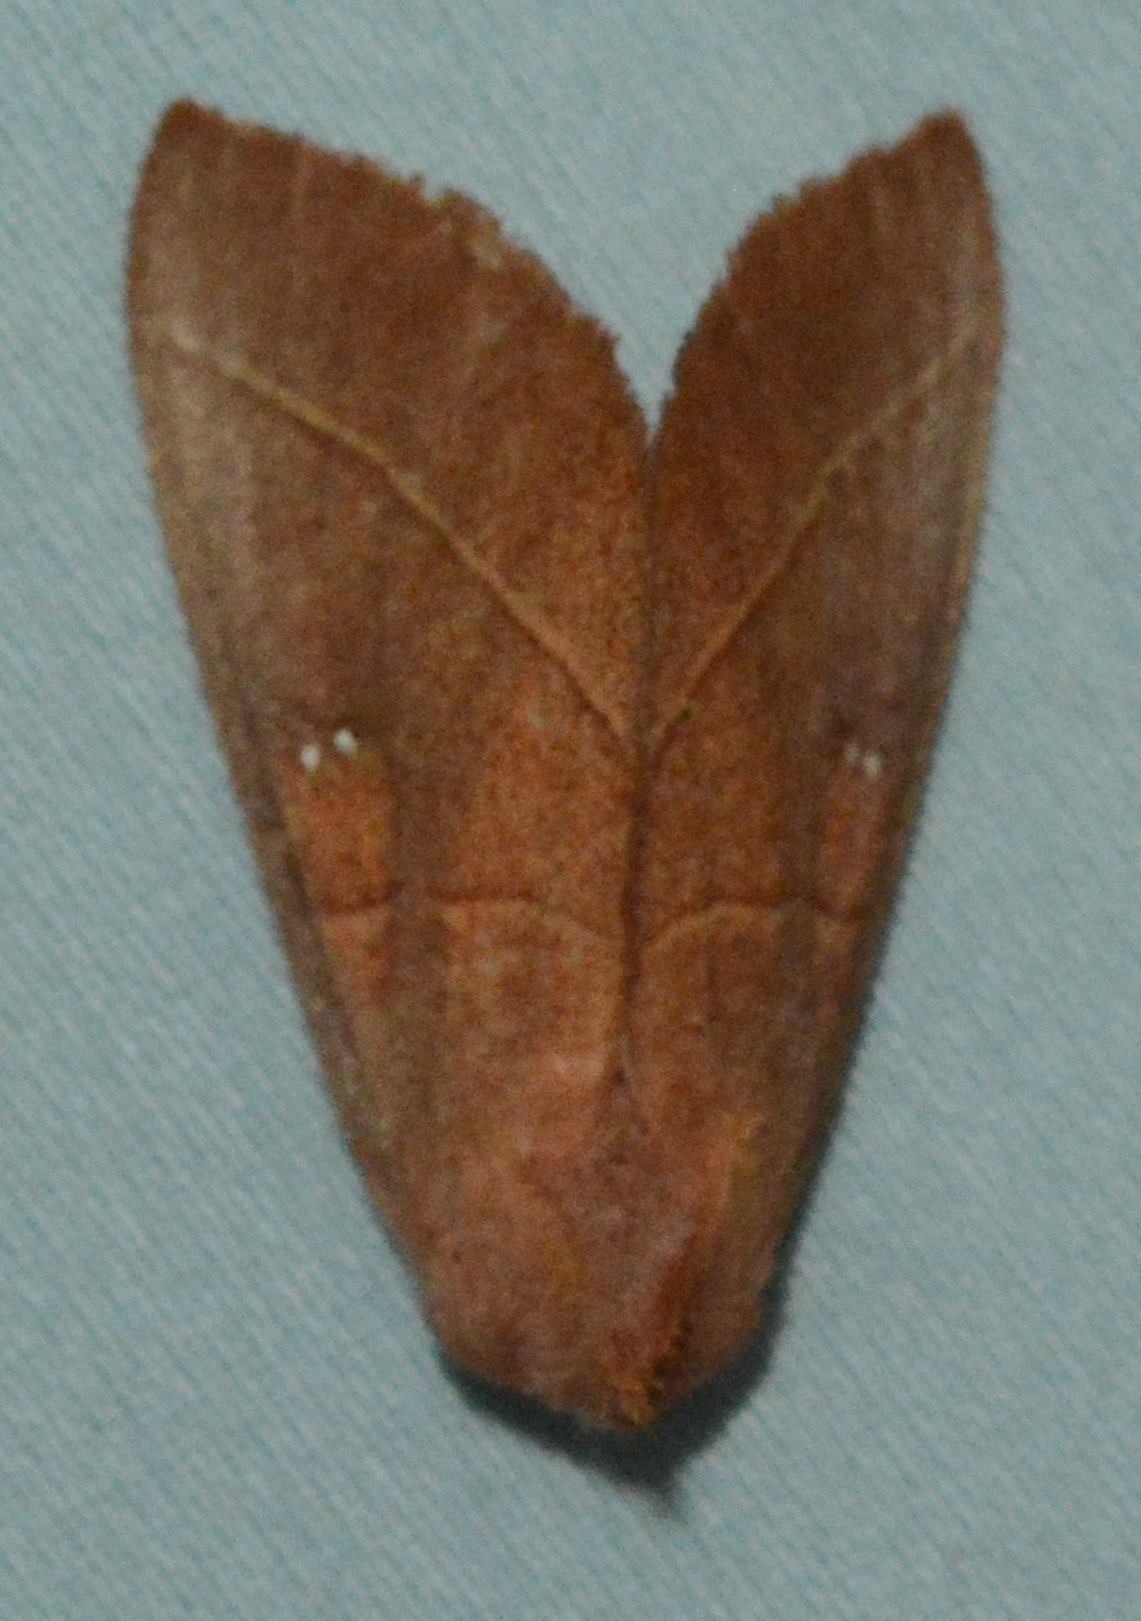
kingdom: Animalia
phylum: Arthropoda
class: Insecta
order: Lepidoptera
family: Notodontidae
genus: Nadata
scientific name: Nadata gibbosa
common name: White-dotted prominent
